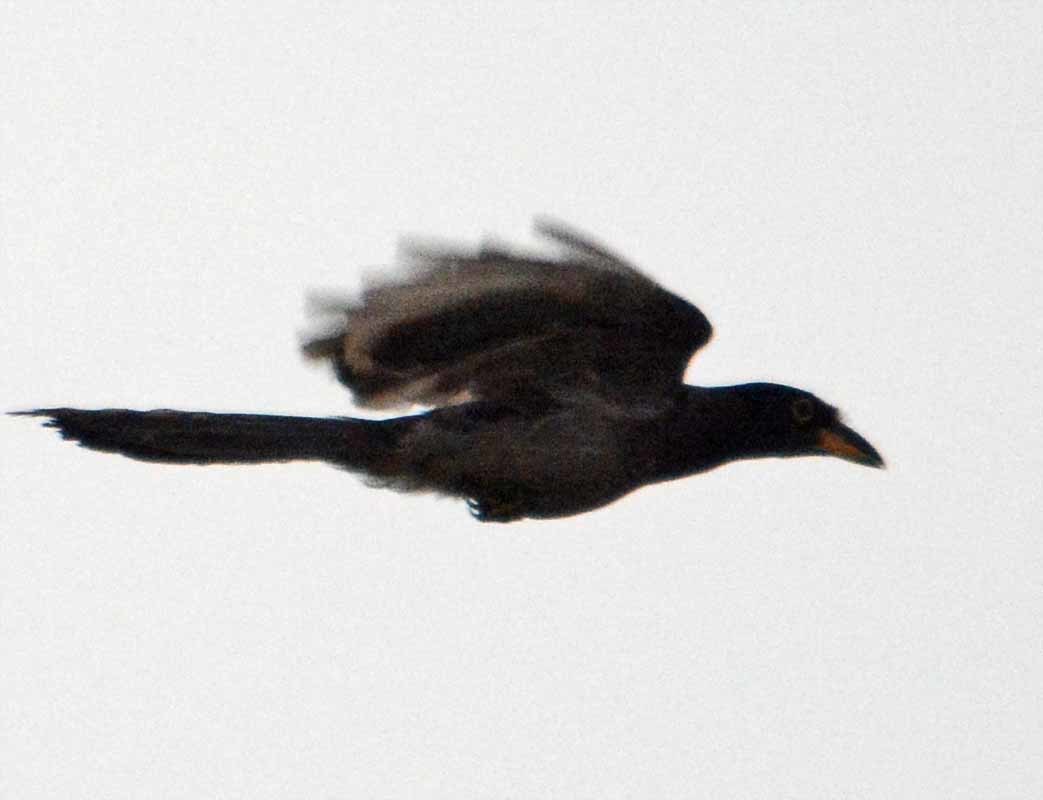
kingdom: Animalia
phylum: Chordata
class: Aves
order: Passeriformes
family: Corvidae
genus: Psilorhinus
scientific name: Psilorhinus morio
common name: Brown jay
